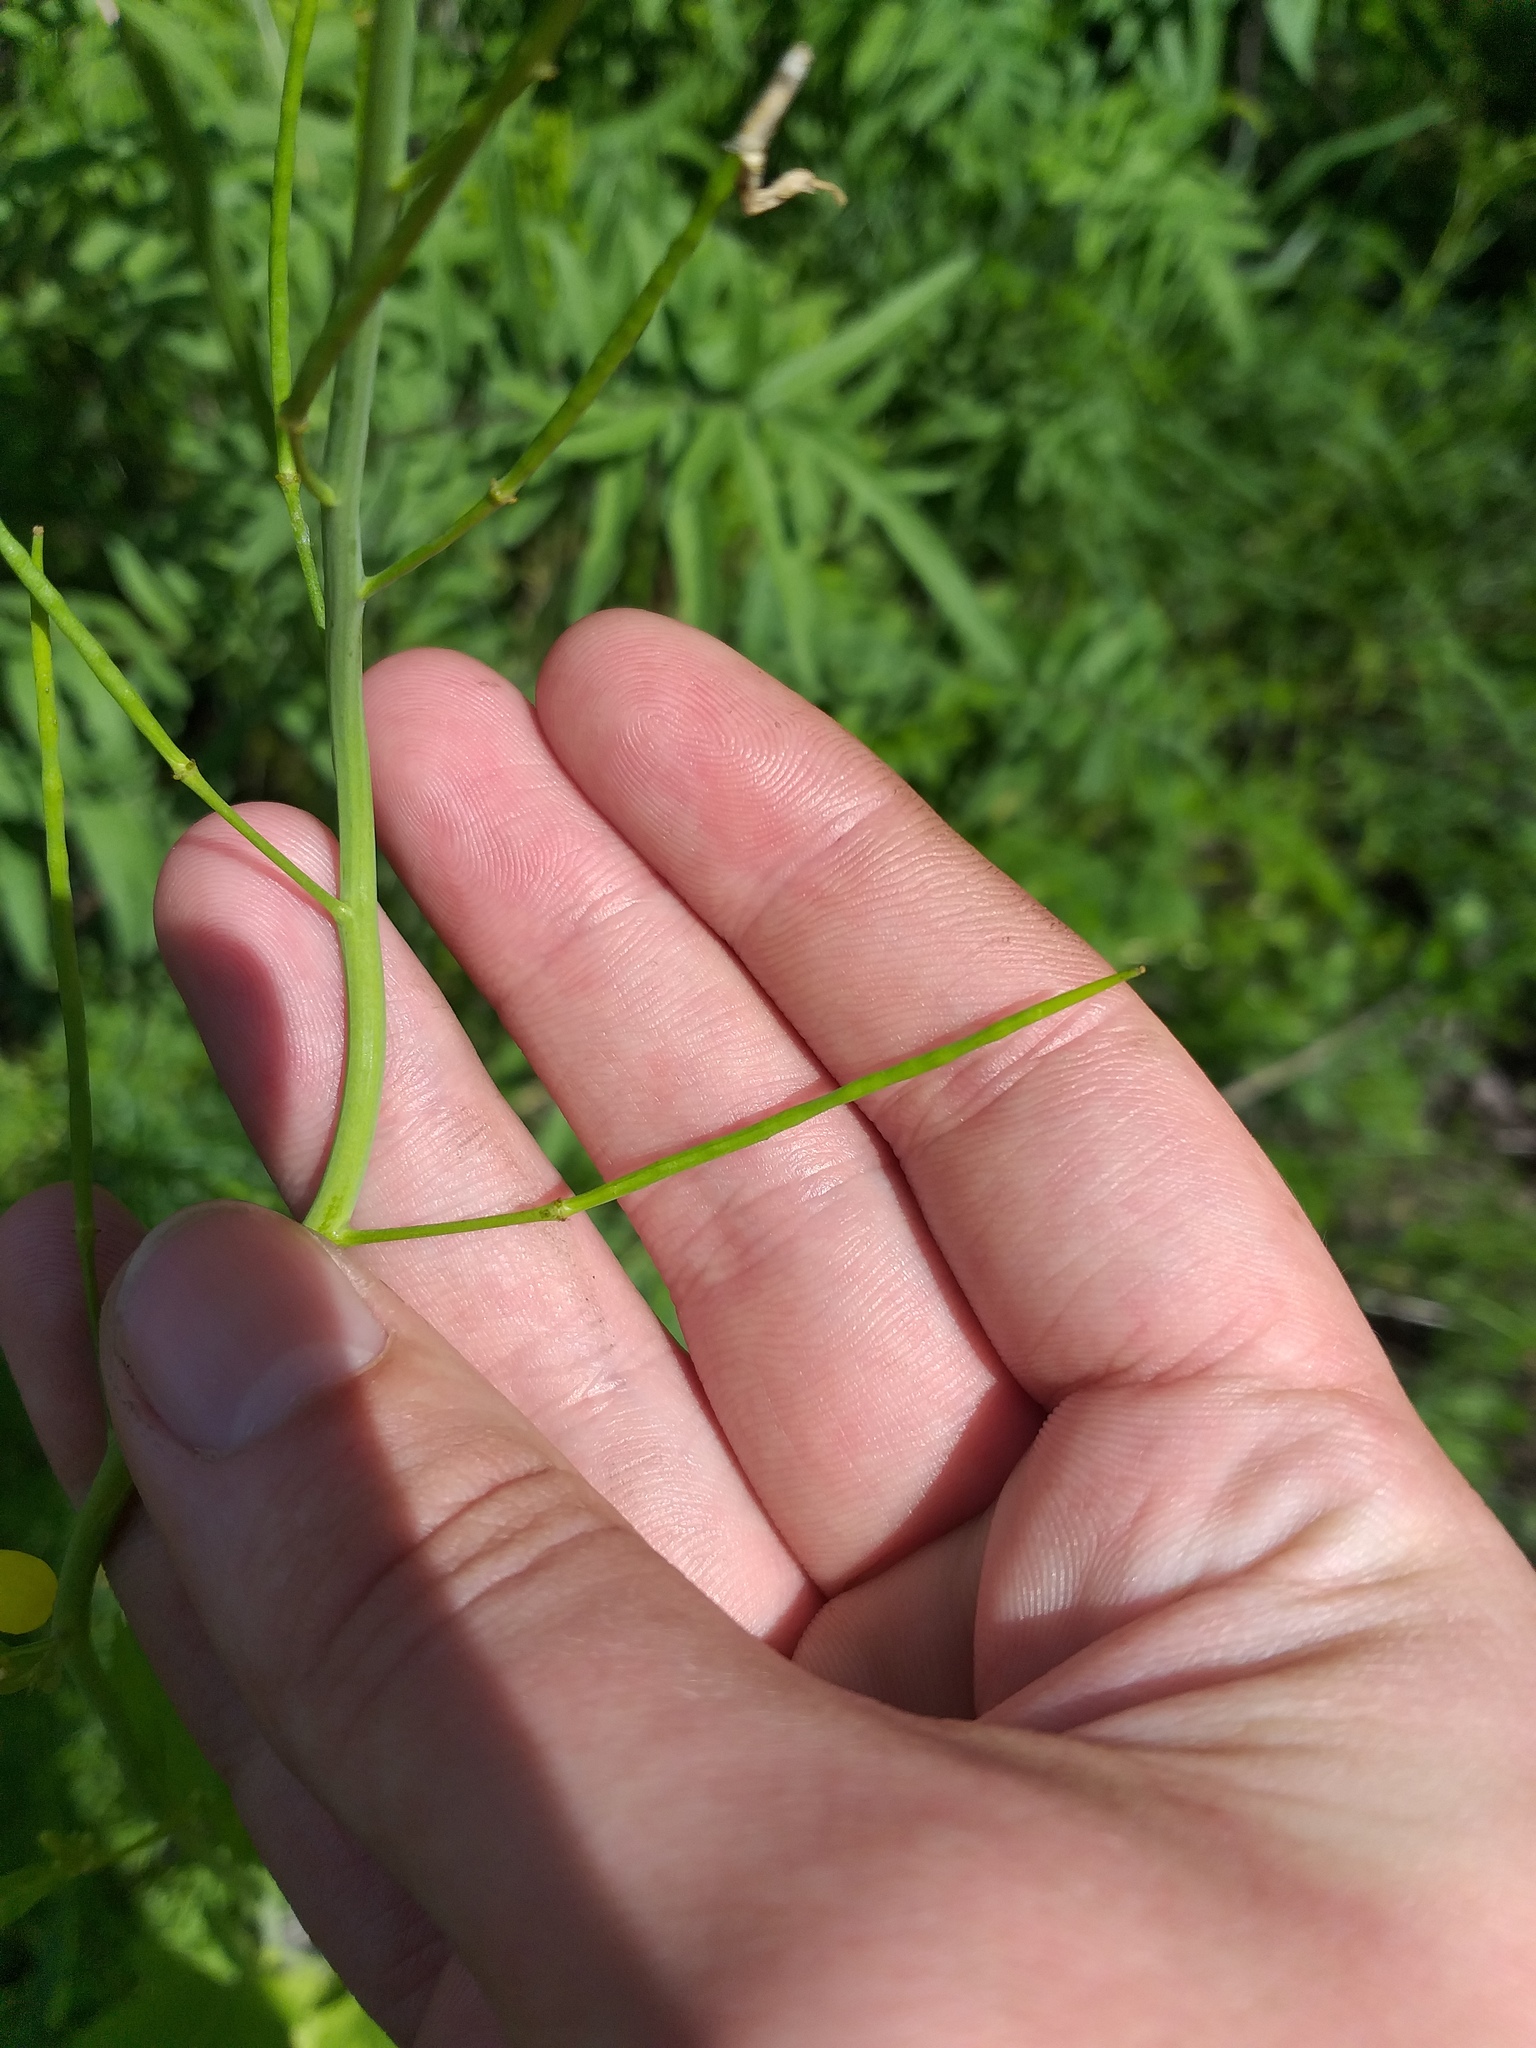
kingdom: Plantae
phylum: Tracheophyta
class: Magnoliopsida
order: Brassicales
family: Brassicaceae
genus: Brassica
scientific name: Brassica juncea
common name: Brown mustard
